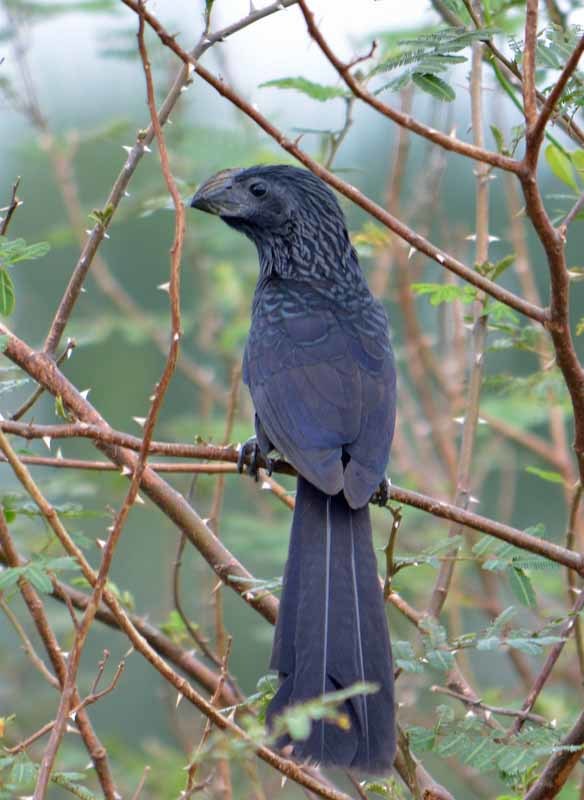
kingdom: Animalia
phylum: Chordata
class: Aves
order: Cuculiformes
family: Cuculidae
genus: Crotophaga
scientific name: Crotophaga sulcirostris
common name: Groove-billed ani
